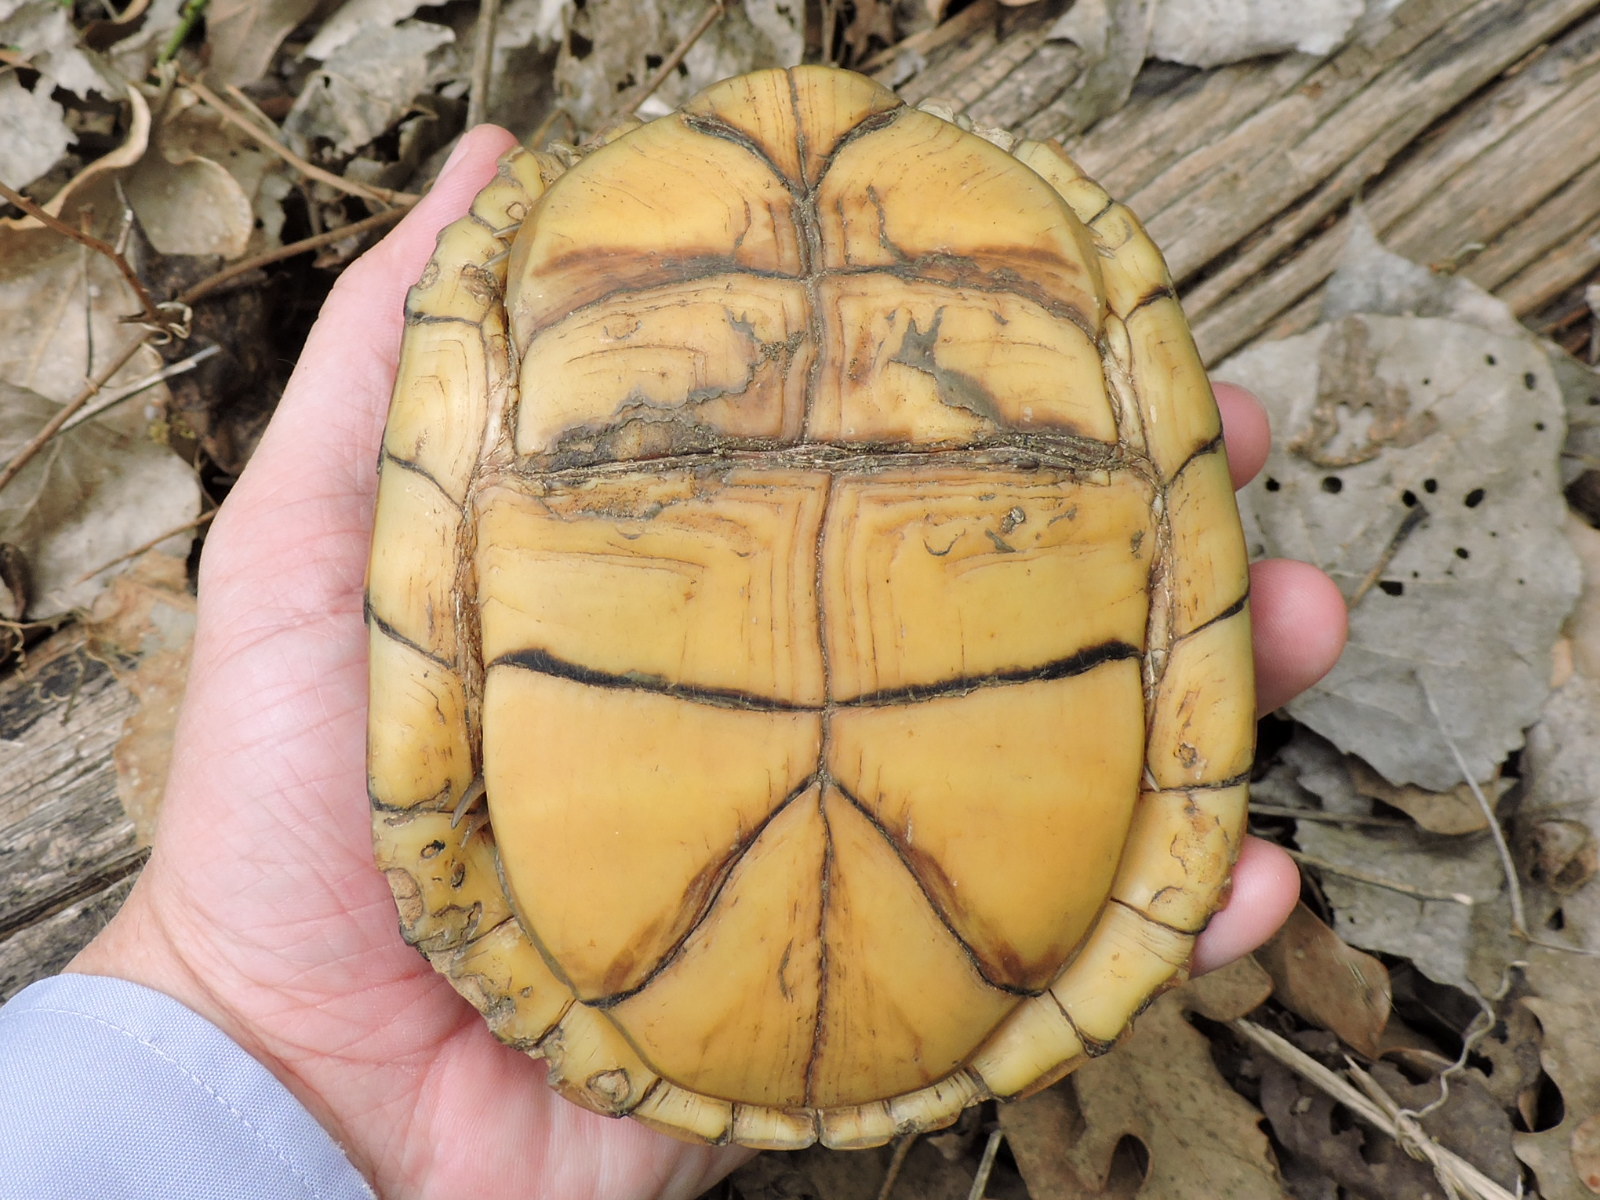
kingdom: Animalia
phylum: Chordata
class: Testudines
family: Emydidae
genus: Terrapene
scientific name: Terrapene carolina
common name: Common box turtle
